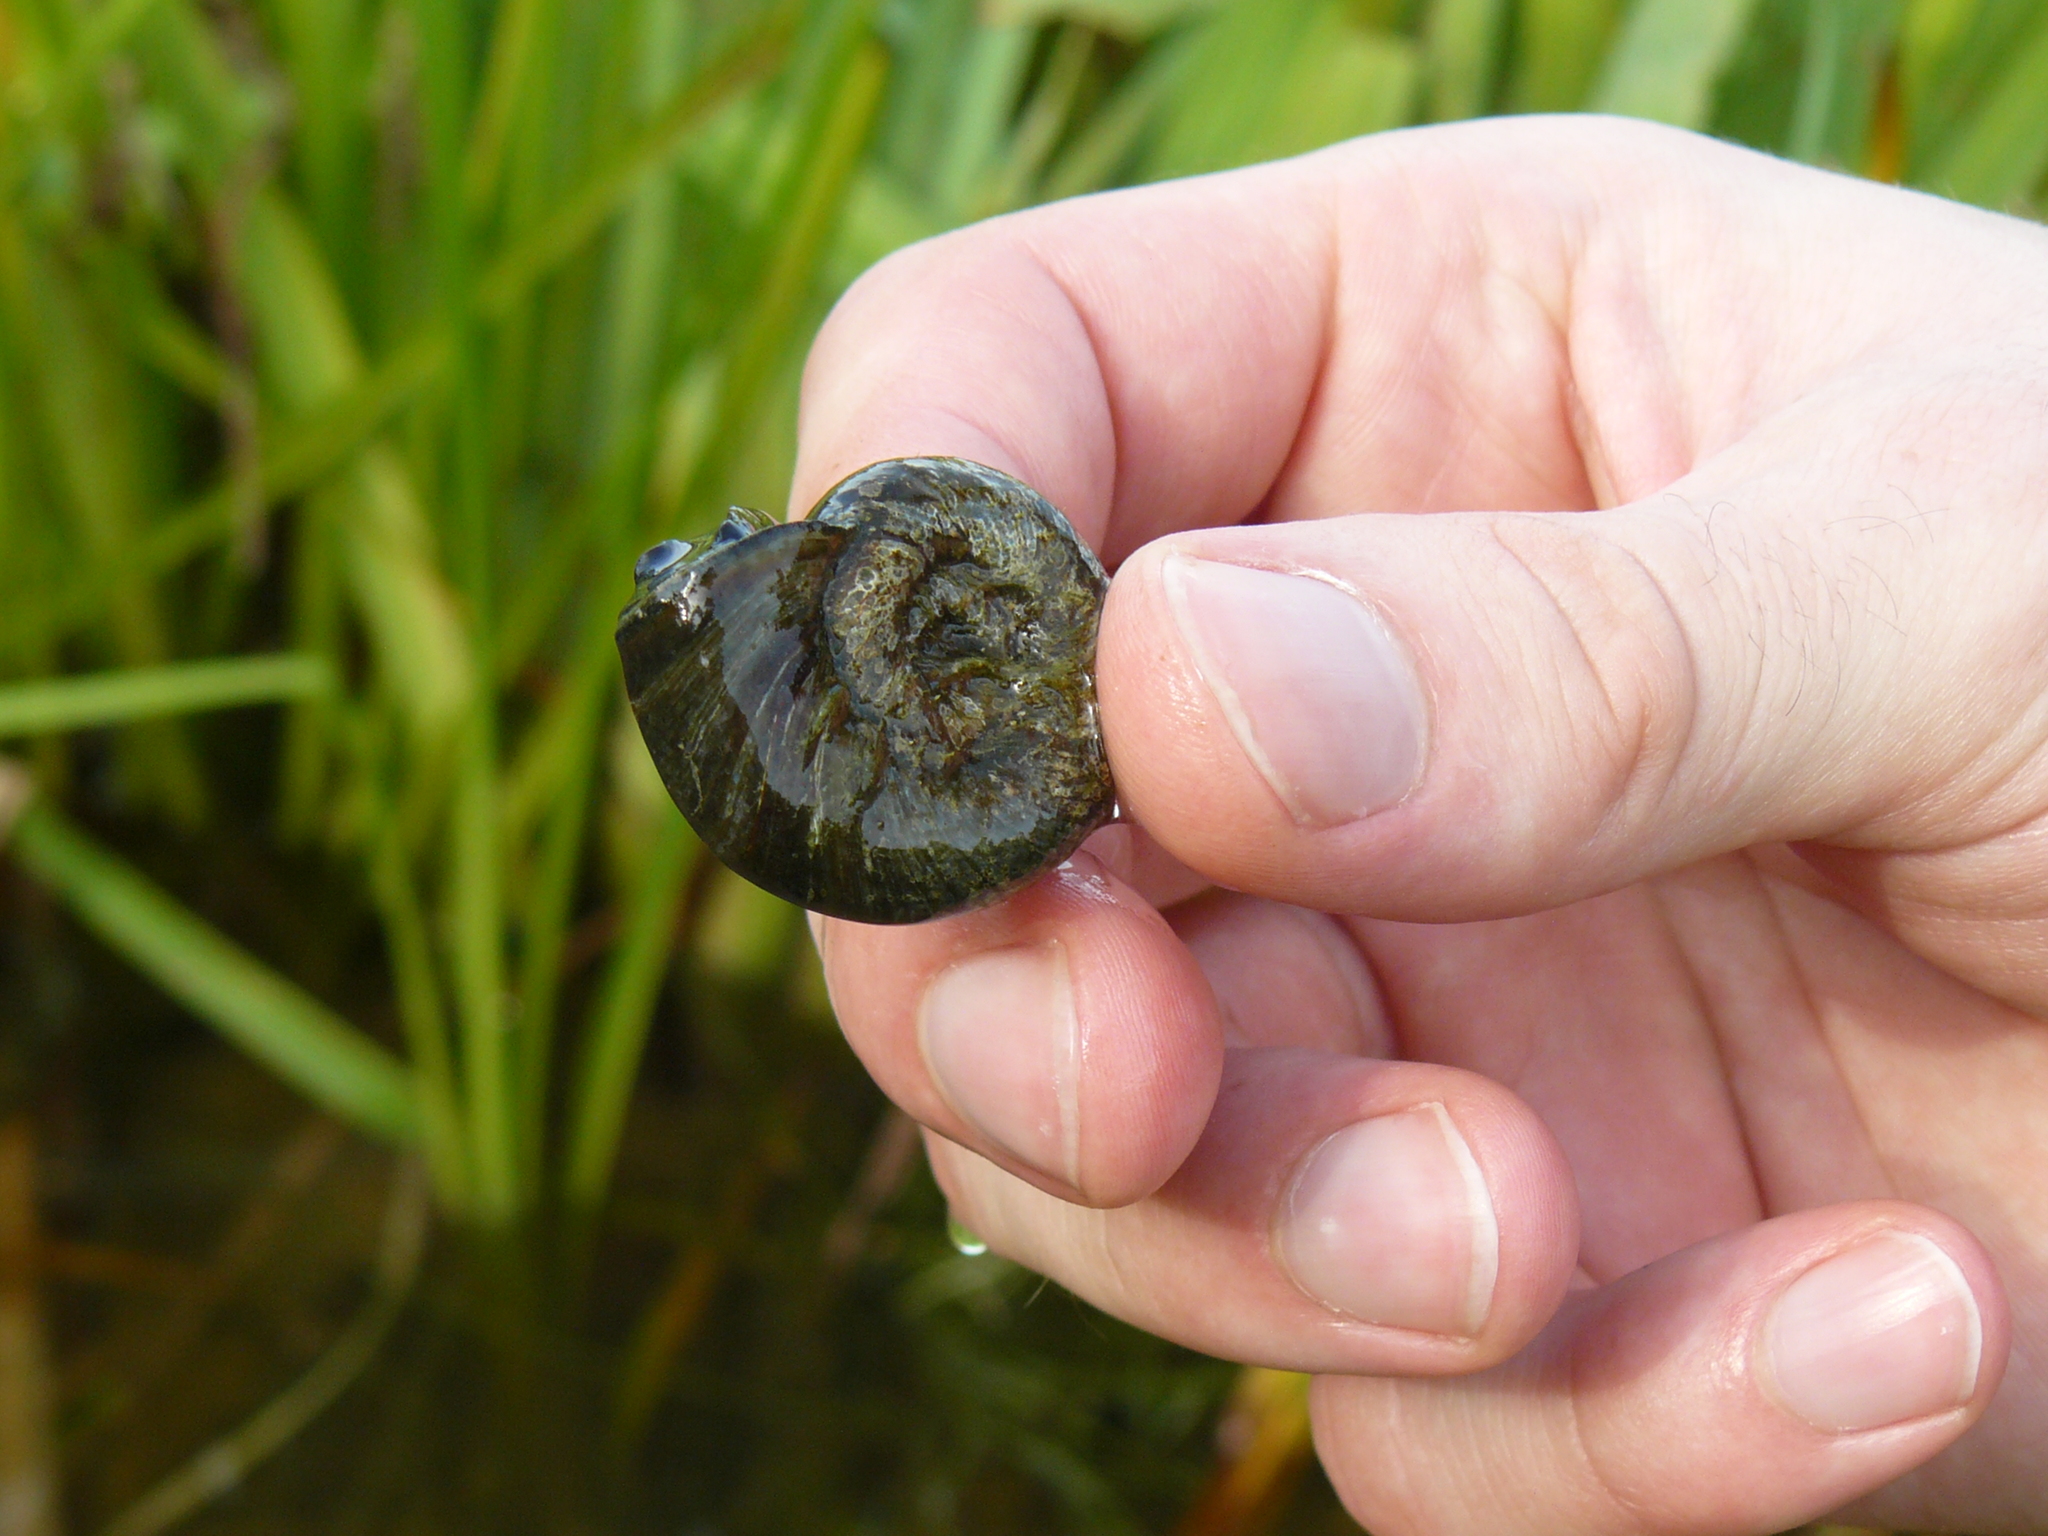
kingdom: Animalia
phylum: Mollusca
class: Gastropoda
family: Planorbidae
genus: Planorbarius
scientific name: Planorbarius corneus
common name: Great ramshorn
